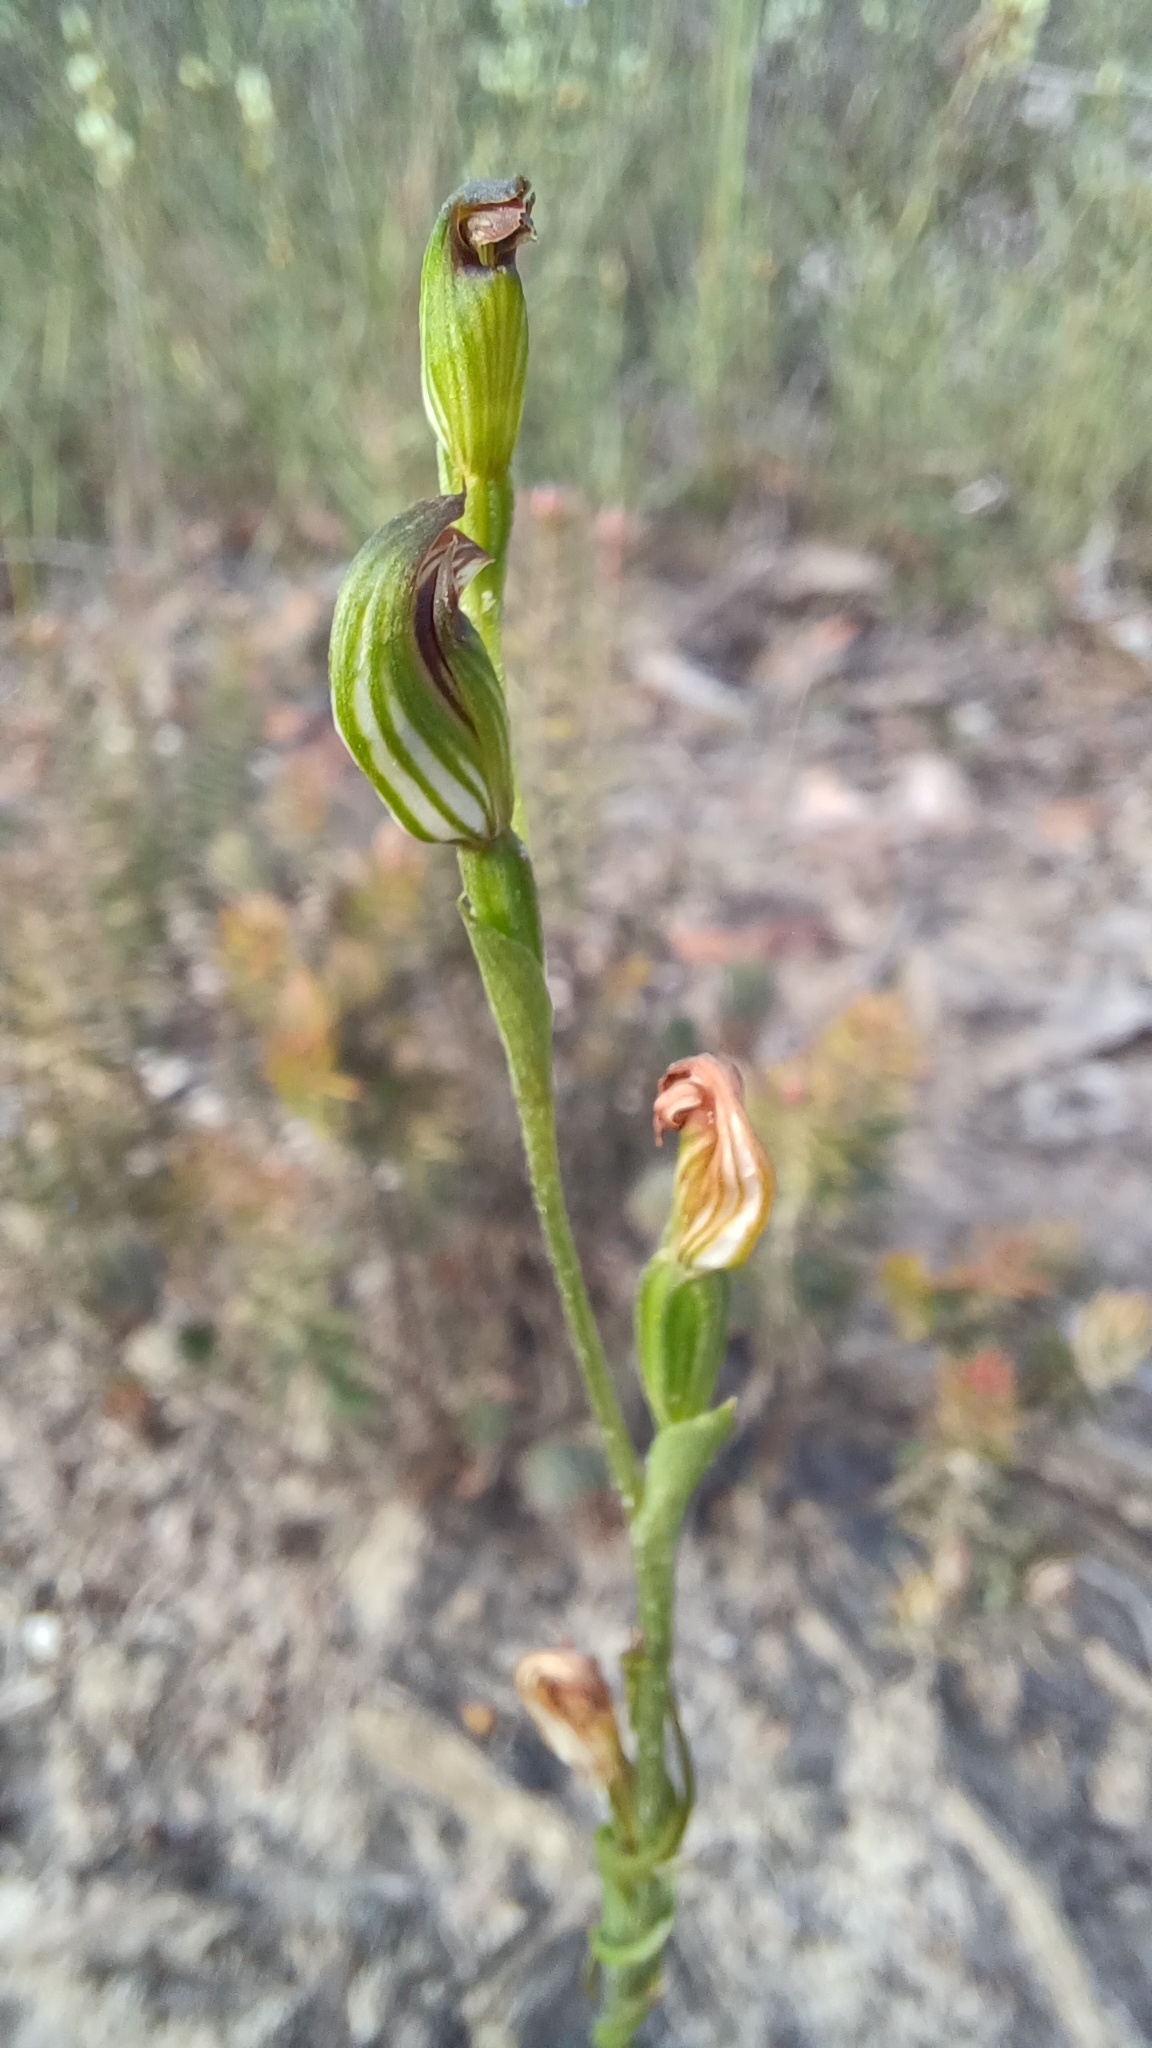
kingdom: Plantae
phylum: Tracheophyta
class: Liliopsida
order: Asparagales
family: Orchidaceae
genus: Pterostylis
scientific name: Pterostylis clivosa
